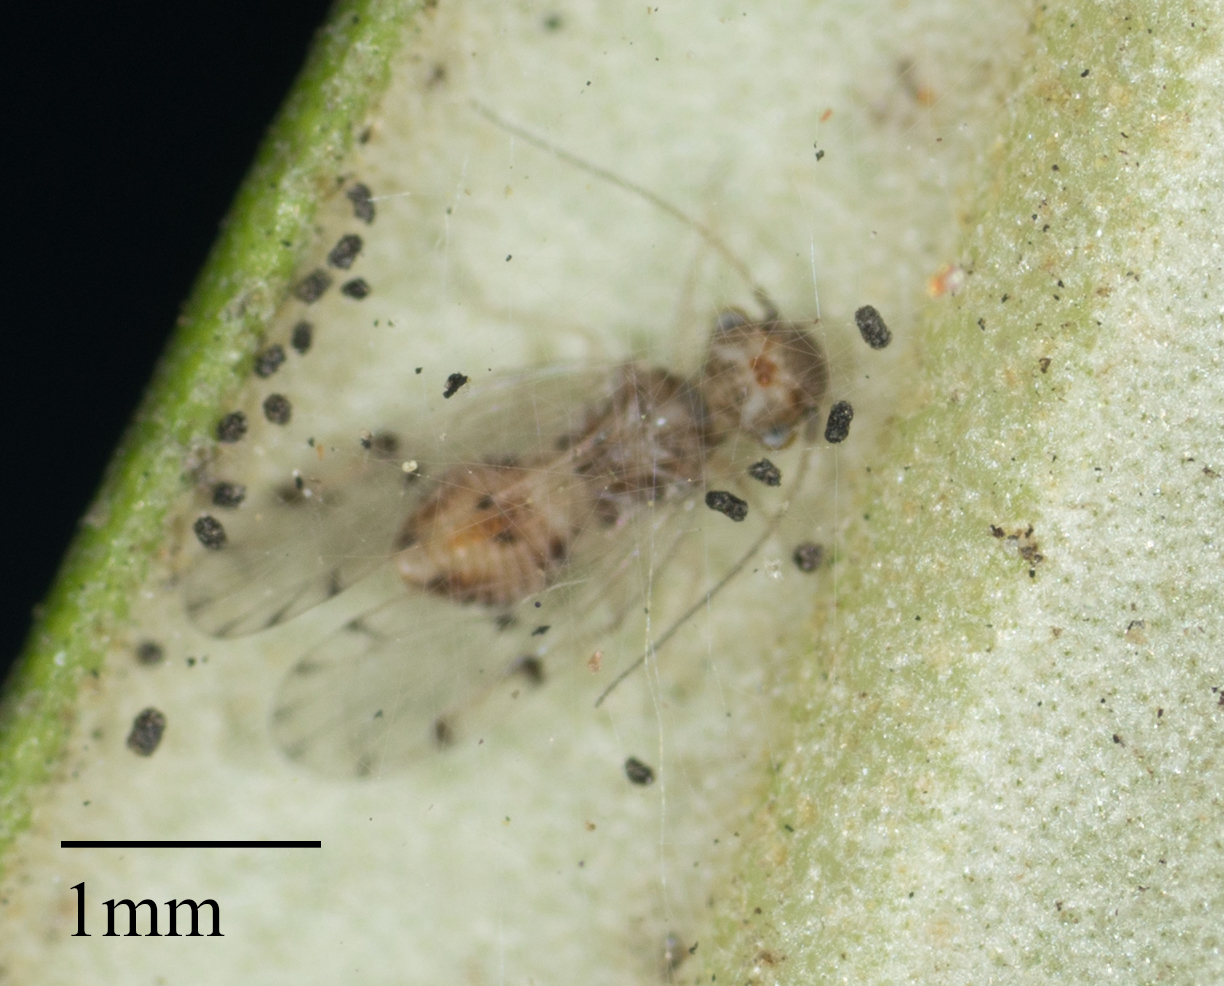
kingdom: Animalia
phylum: Arthropoda
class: Insecta
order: Psocodea
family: Ectopsocidae
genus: Ectopsocus
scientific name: Ectopsocus californicus
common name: Bark lice
